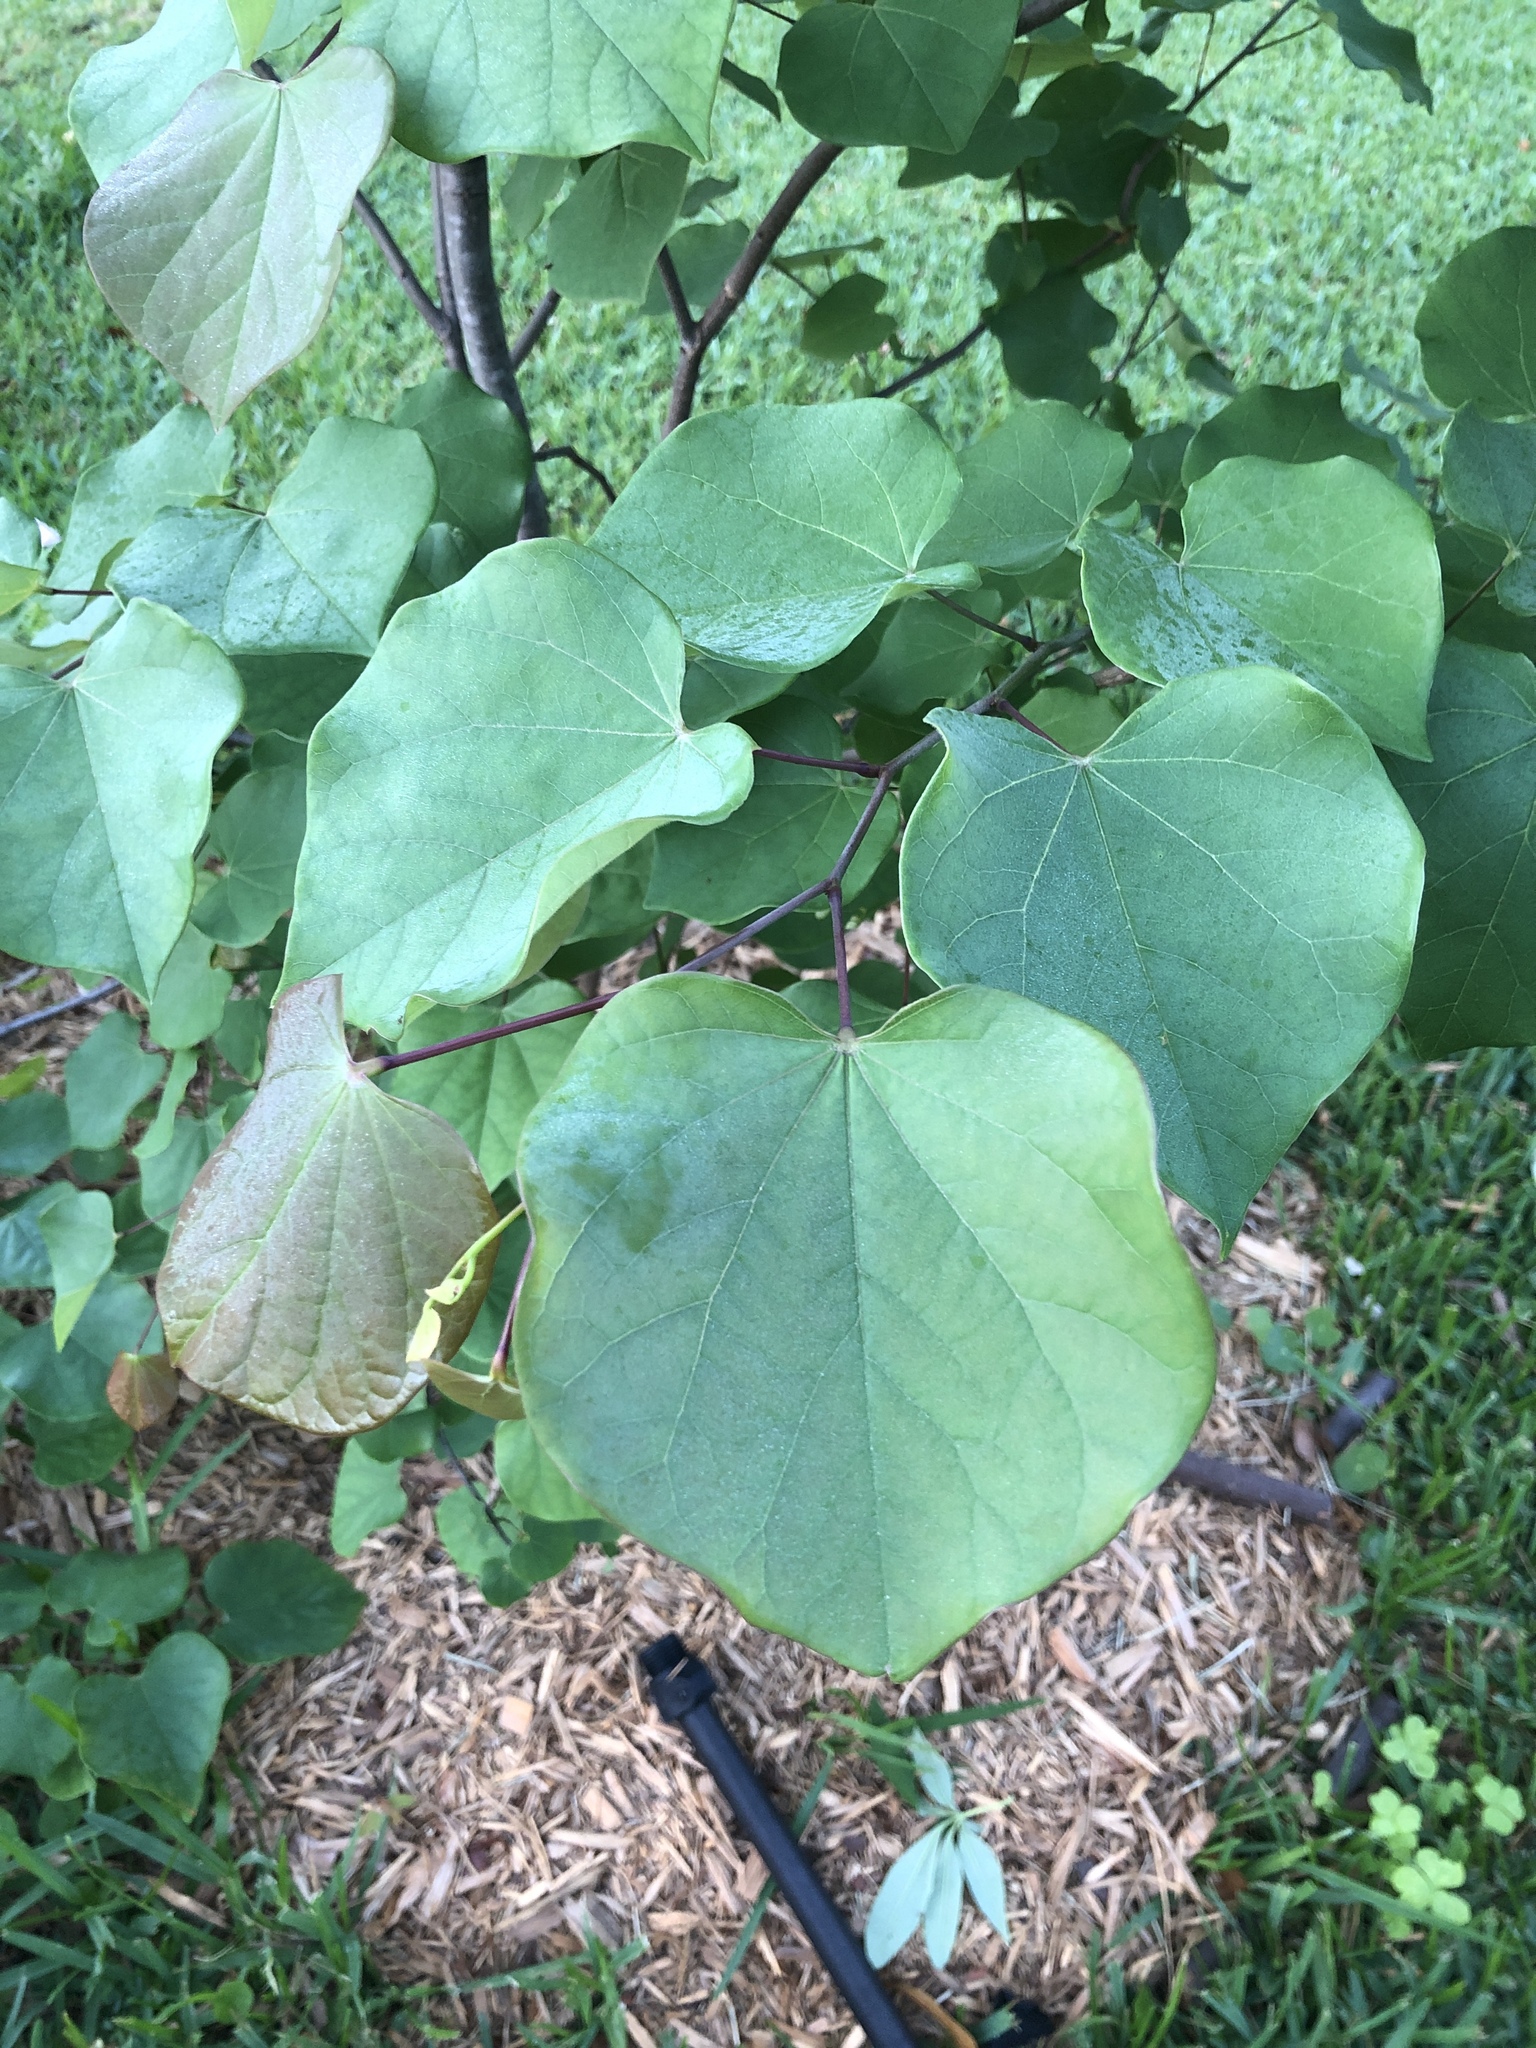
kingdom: Plantae
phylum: Tracheophyta
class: Magnoliopsida
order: Fabales
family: Fabaceae
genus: Cercis
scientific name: Cercis canadensis
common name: Eastern redbud
